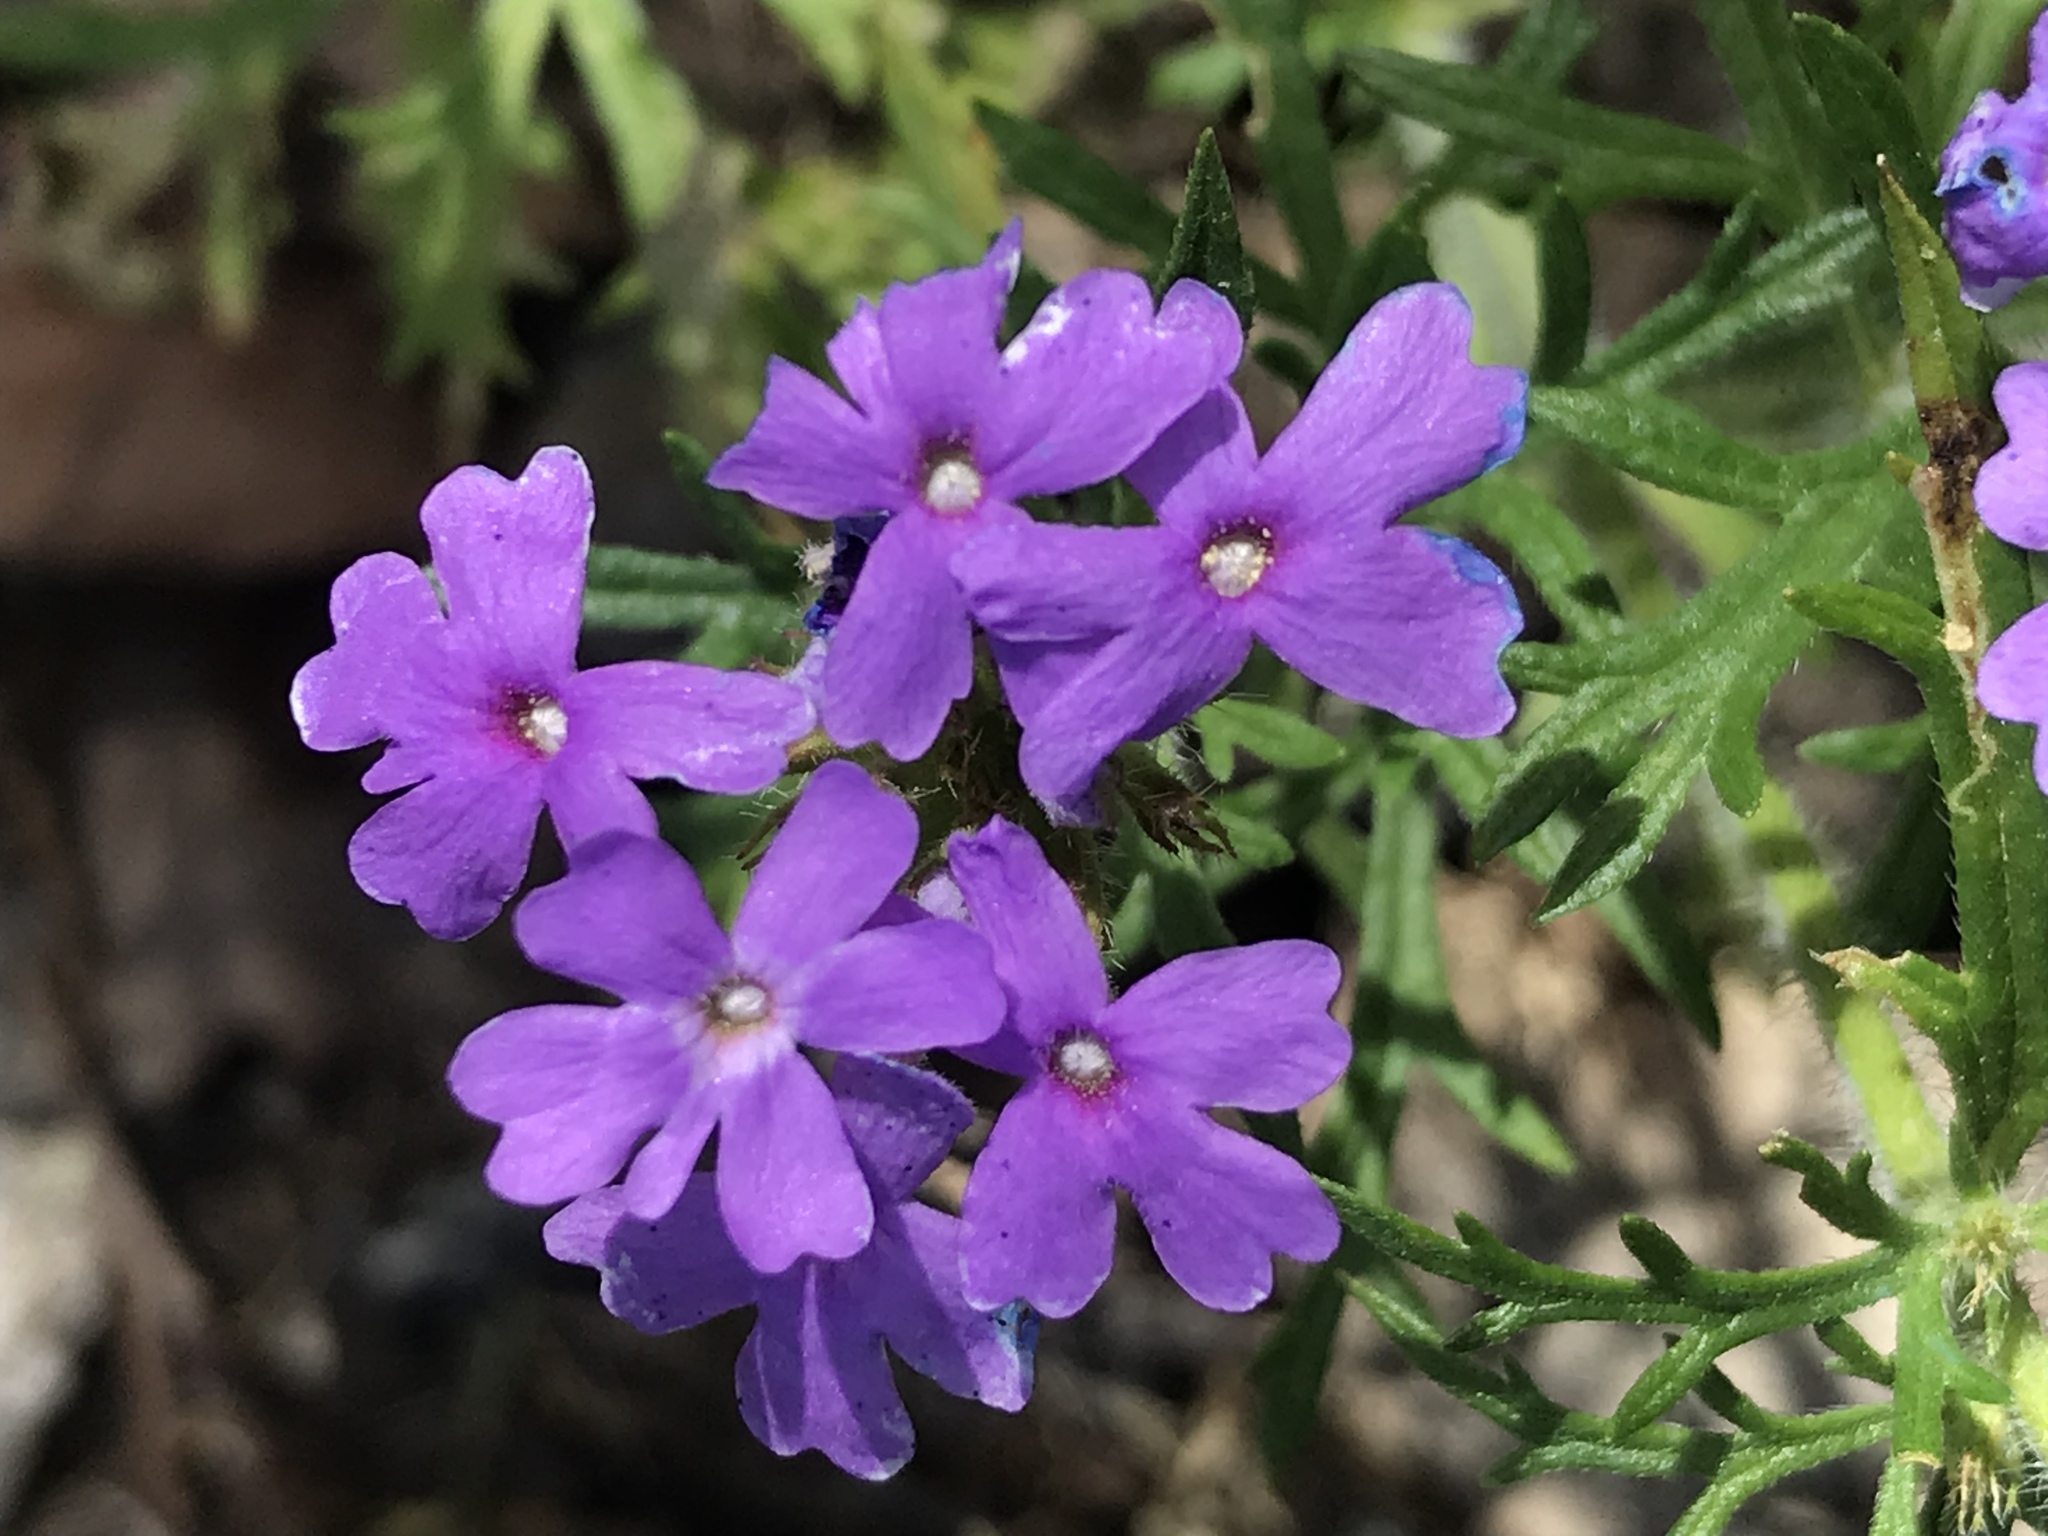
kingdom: Plantae
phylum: Tracheophyta
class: Magnoliopsida
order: Lamiales
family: Verbenaceae
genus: Verbena
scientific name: Verbena bipinnatifida
